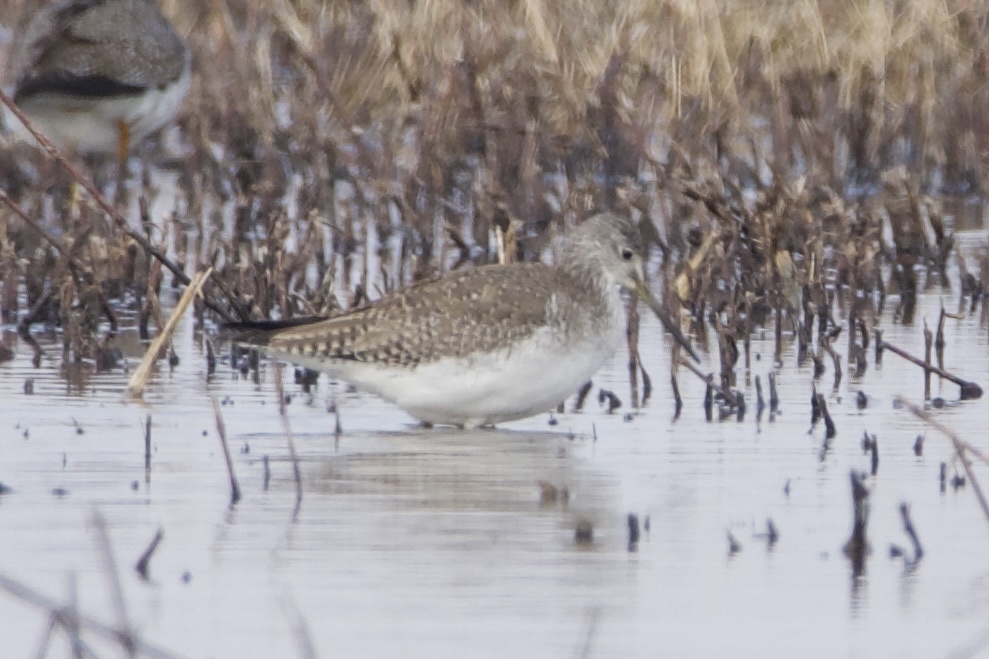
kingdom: Animalia
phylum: Chordata
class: Aves
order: Charadriiformes
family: Scolopacidae
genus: Tringa
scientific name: Tringa melanoleuca
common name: Greater yellowlegs
